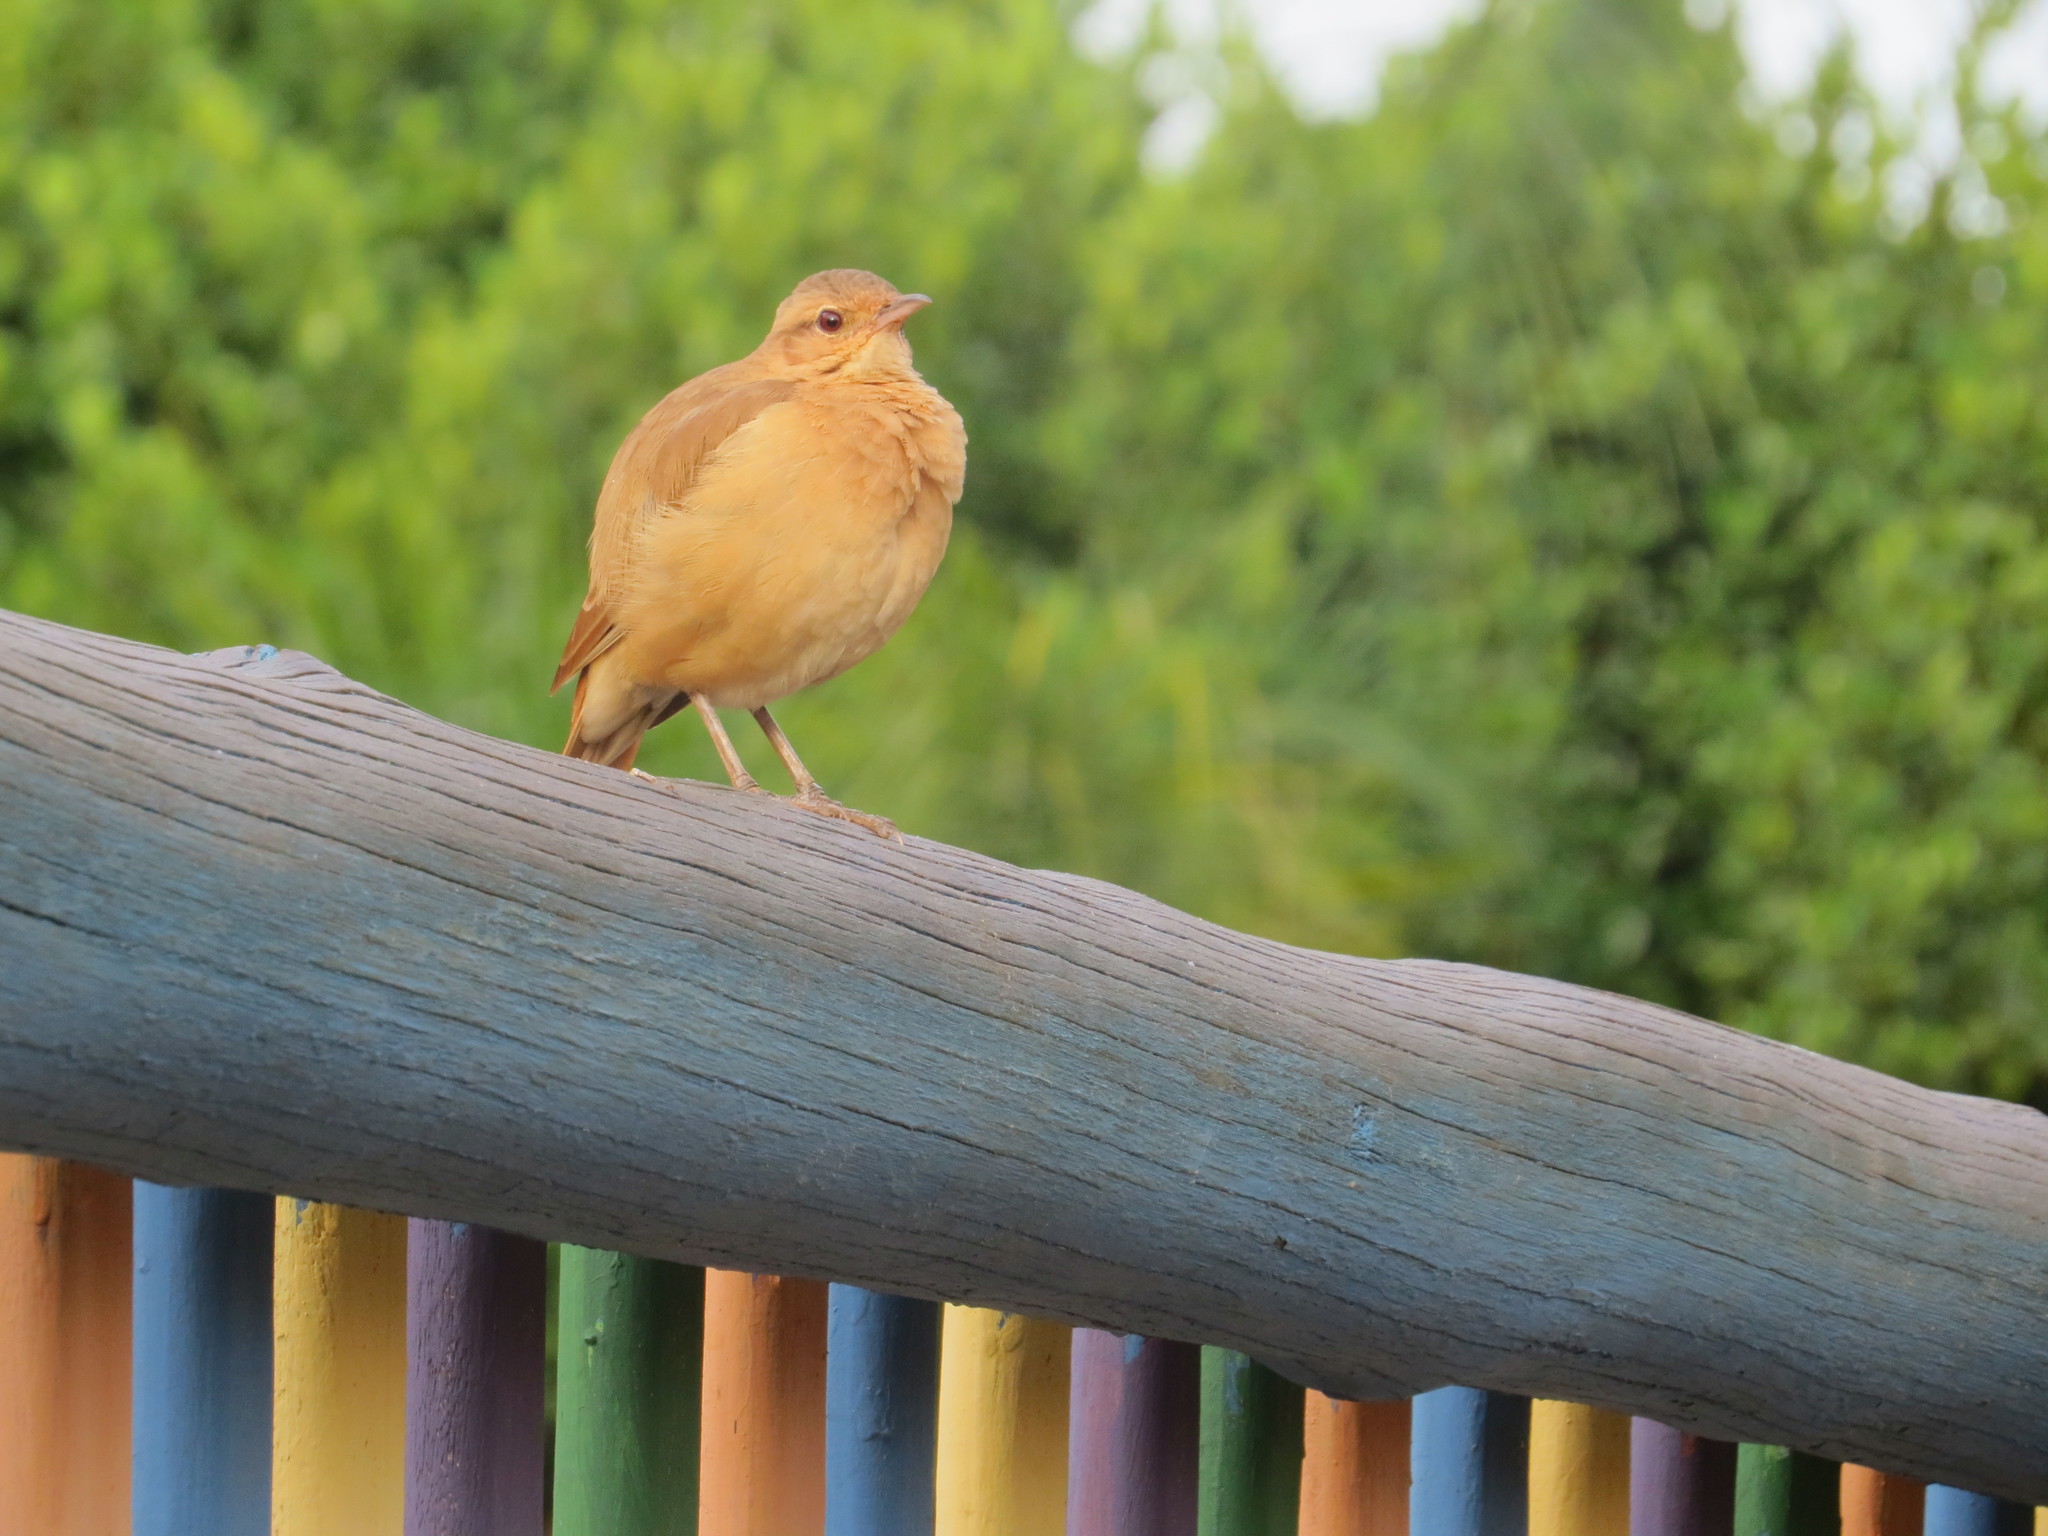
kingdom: Animalia
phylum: Chordata
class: Aves
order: Passeriformes
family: Furnariidae
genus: Furnarius
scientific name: Furnarius rufus
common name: Rufous hornero
